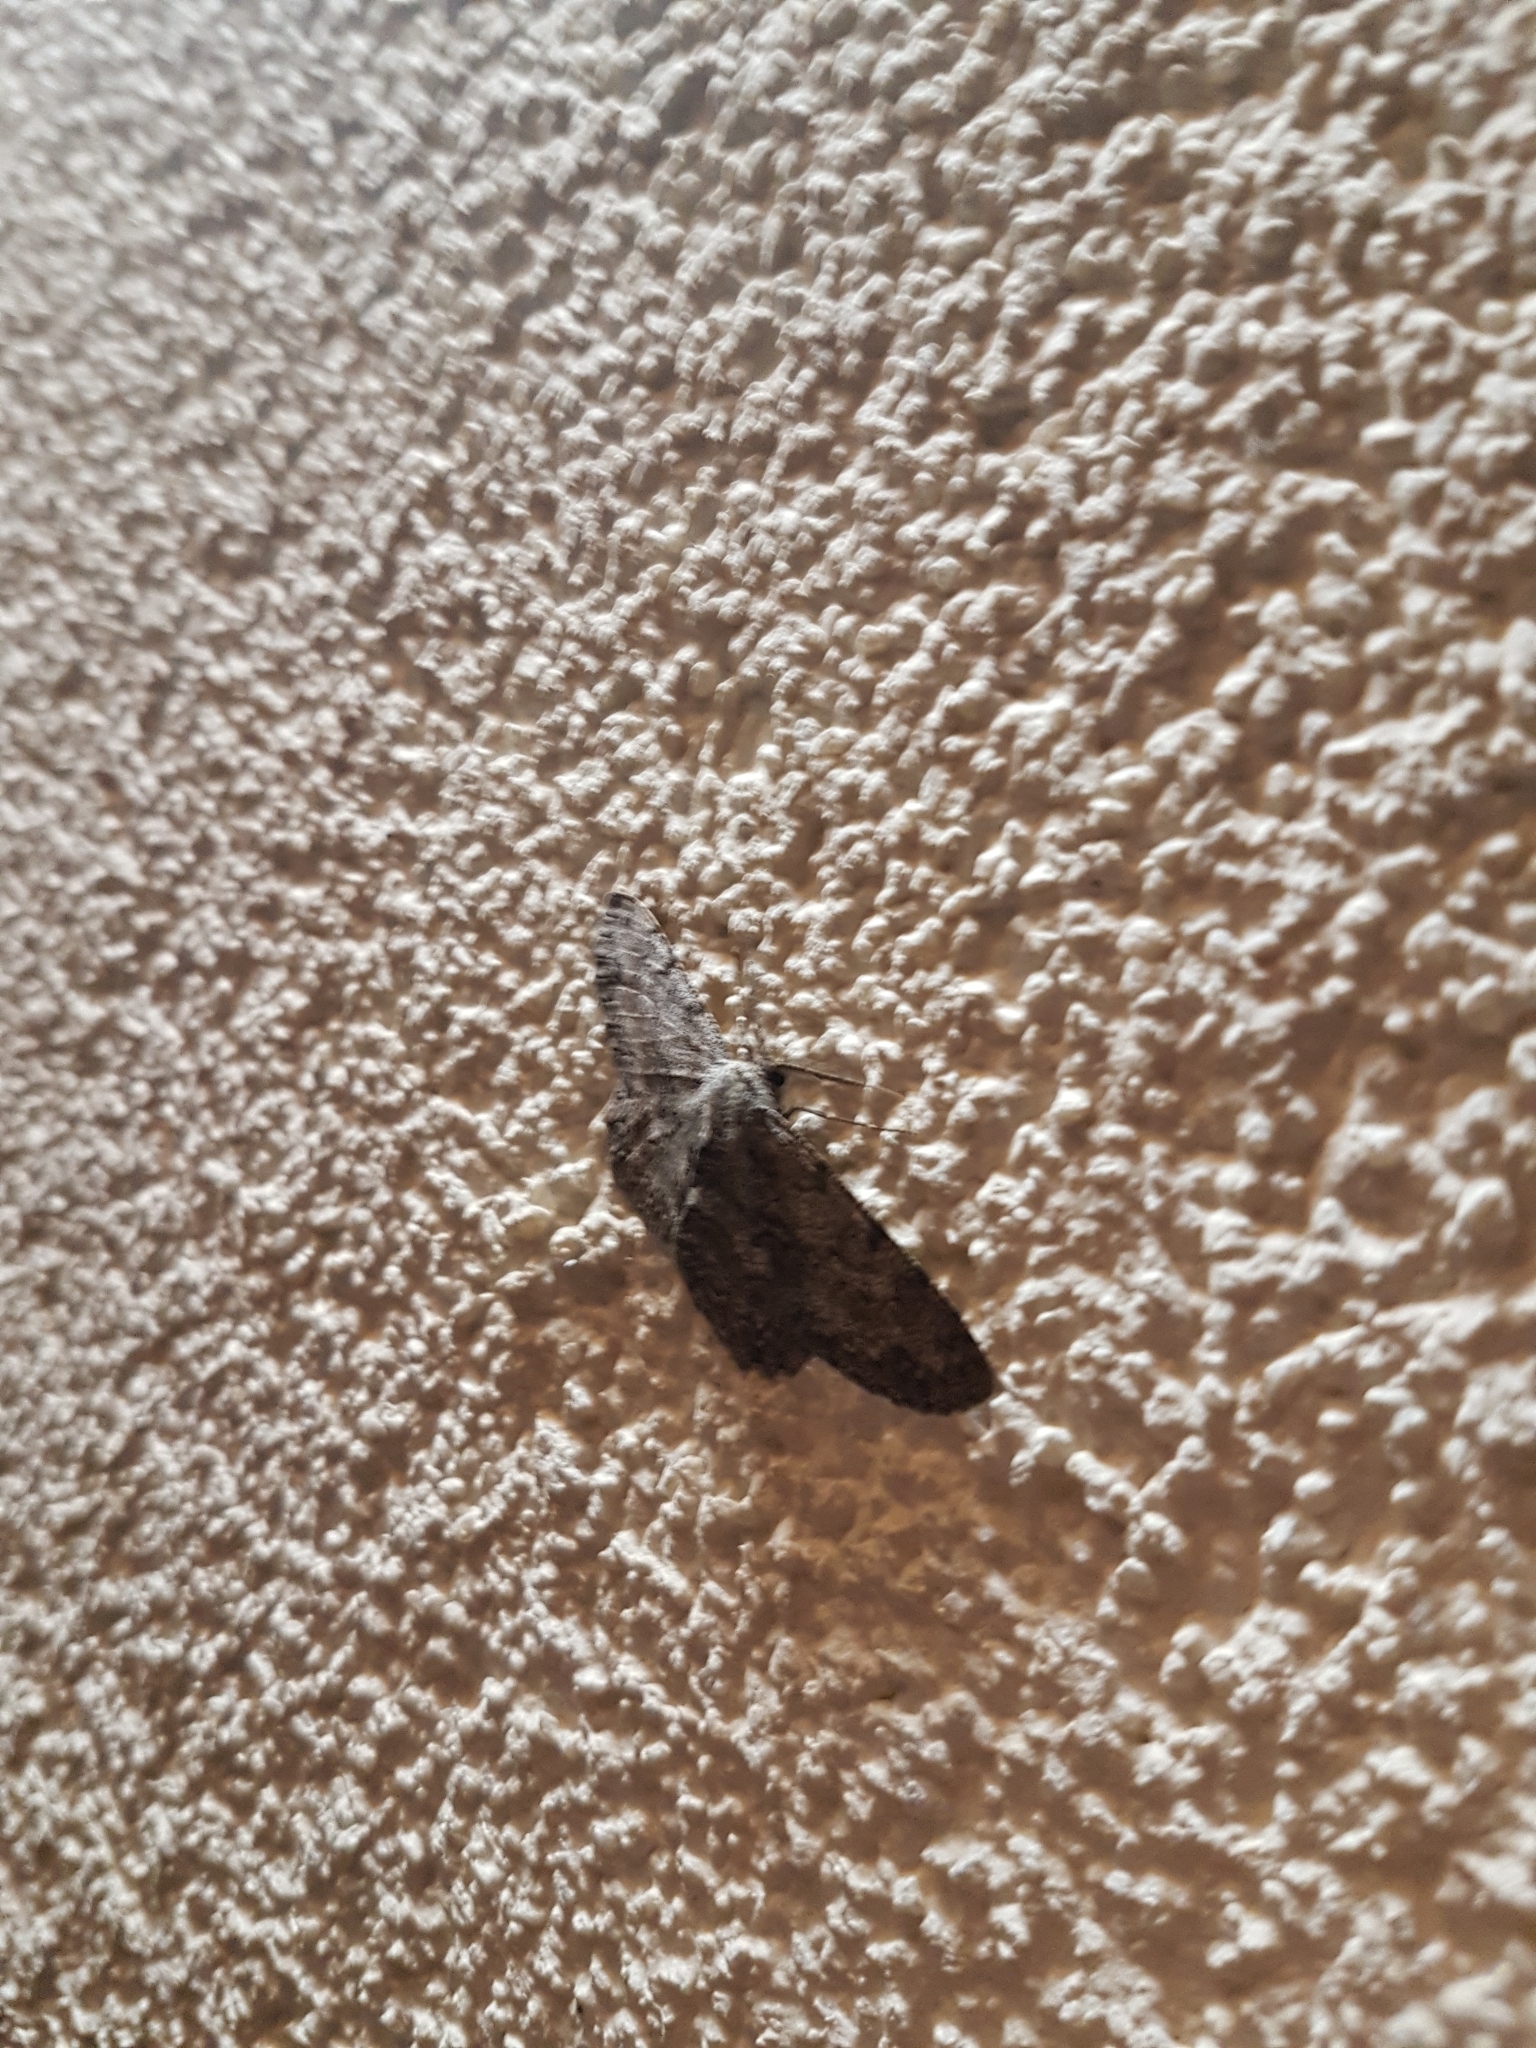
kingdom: Animalia
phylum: Arthropoda
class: Insecta
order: Lepidoptera
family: Geometridae
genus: Hypomecis
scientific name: Hypomecis punctinalis
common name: Pale oak beauty
